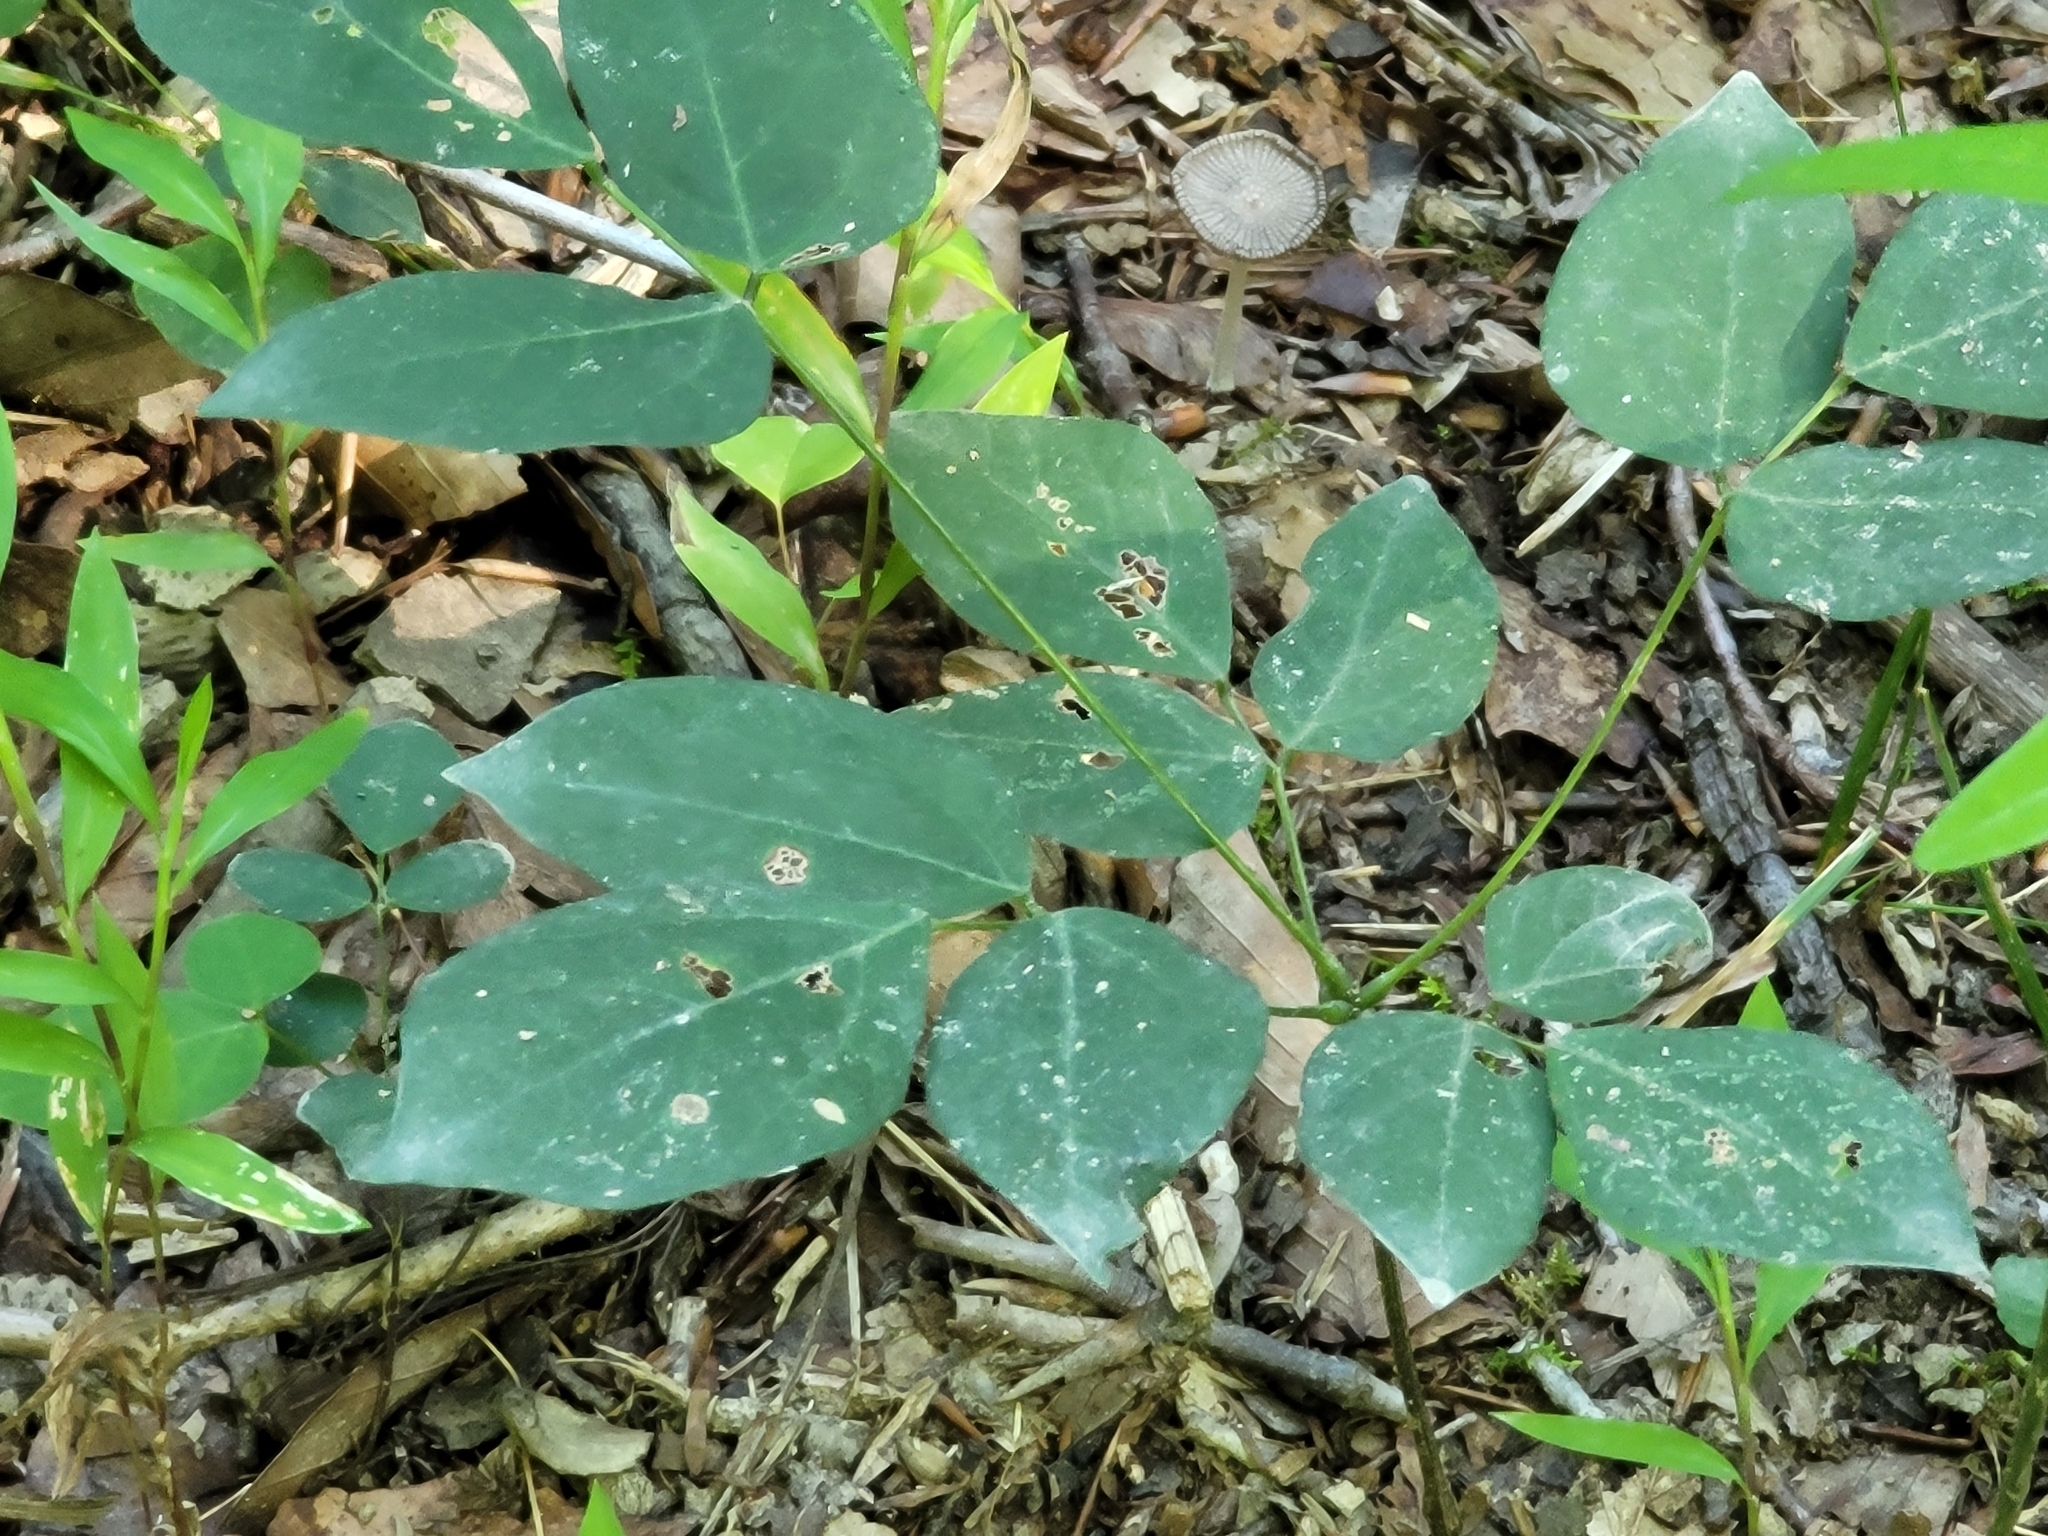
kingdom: Plantae
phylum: Tracheophyta
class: Magnoliopsida
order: Fabales
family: Fabaceae
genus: Hylodesmum
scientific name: Hylodesmum nudiflorum
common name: Bare-stemmed tick-trefoil
